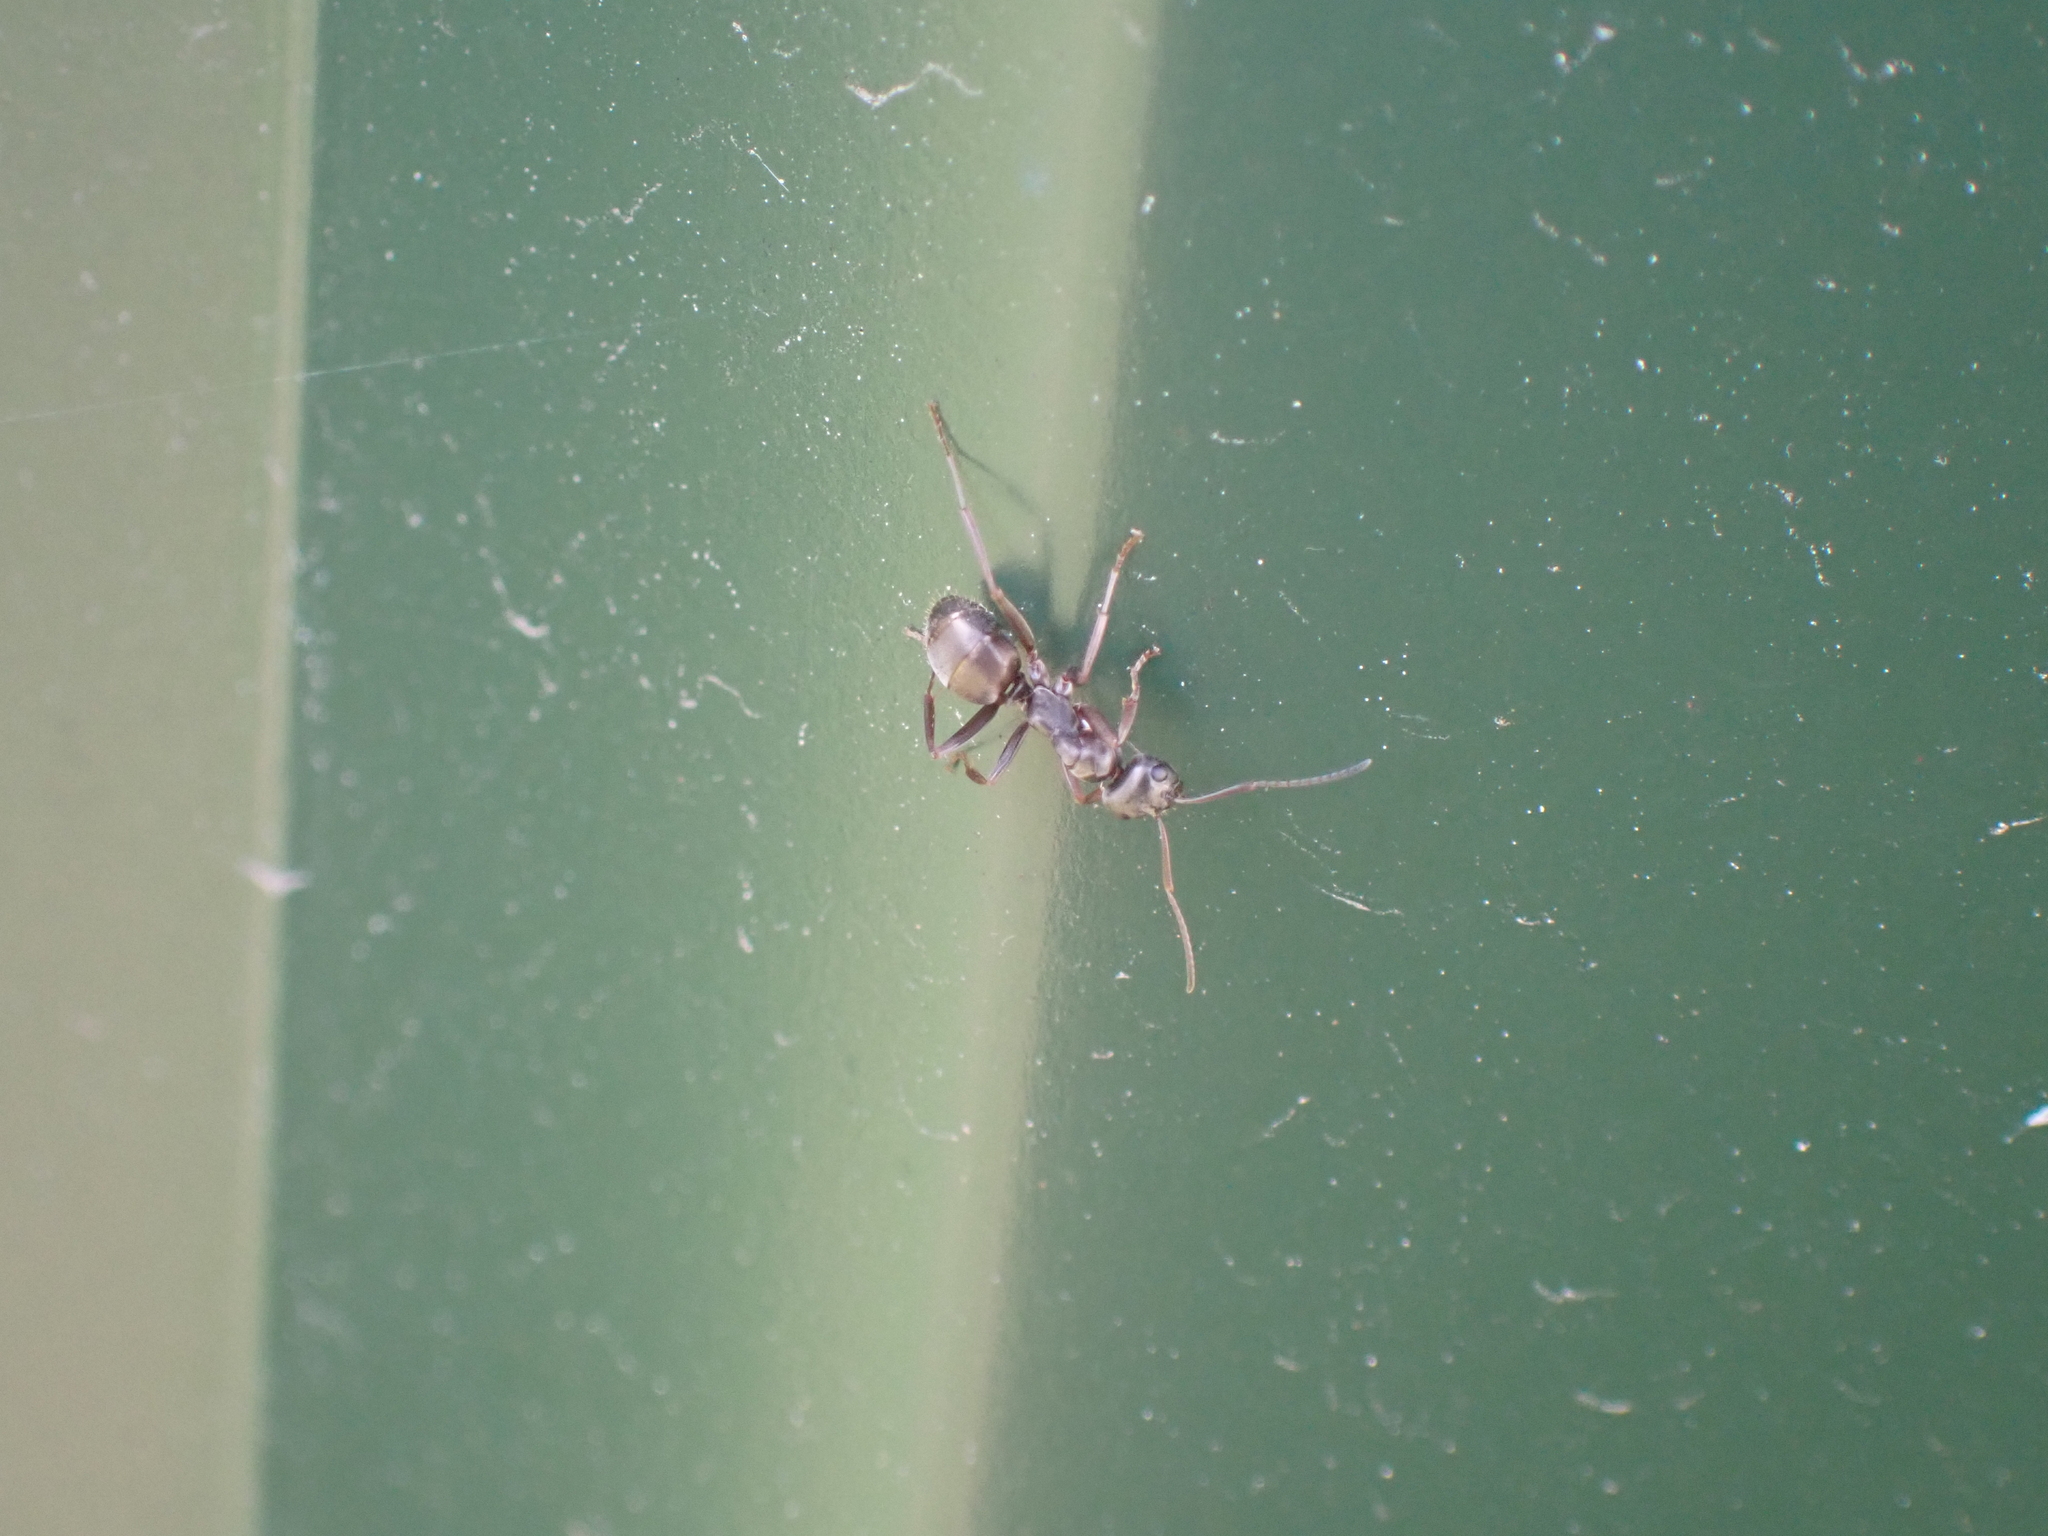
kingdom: Animalia
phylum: Arthropoda
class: Insecta
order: Hymenoptera
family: Formicidae
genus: Formica
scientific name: Formica
